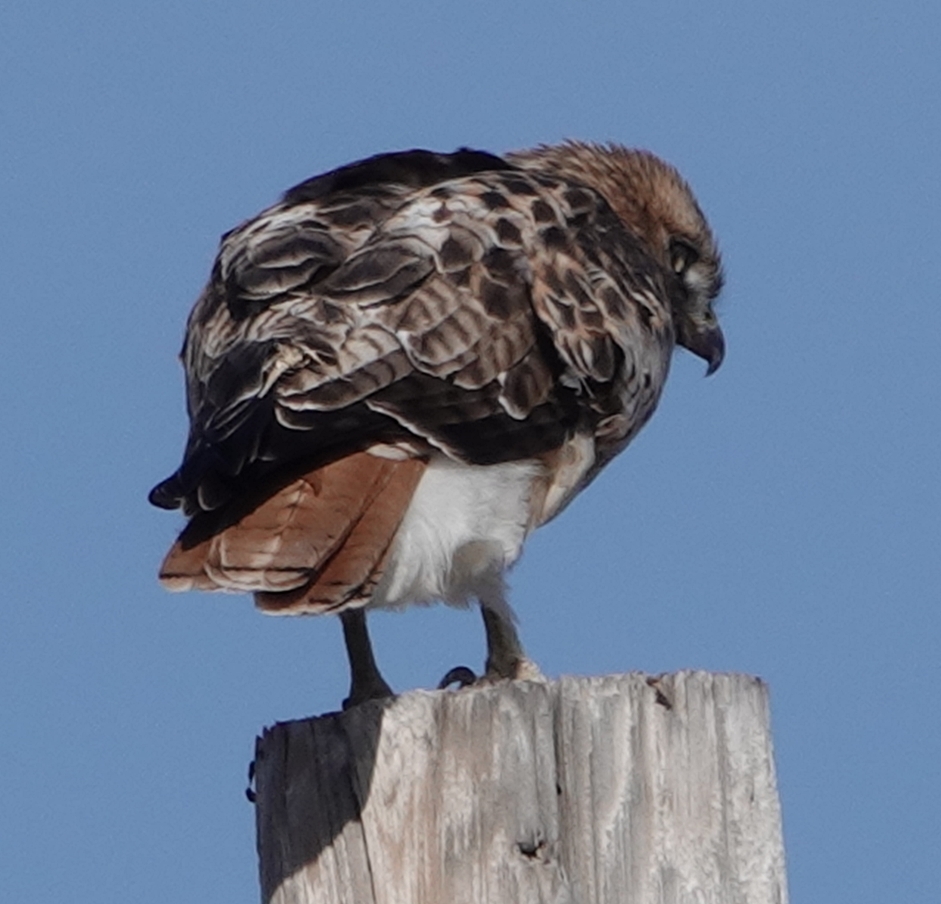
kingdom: Animalia
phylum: Chordata
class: Aves
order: Accipitriformes
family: Accipitridae
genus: Buteo
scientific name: Buteo jamaicensis
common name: Red-tailed hawk
